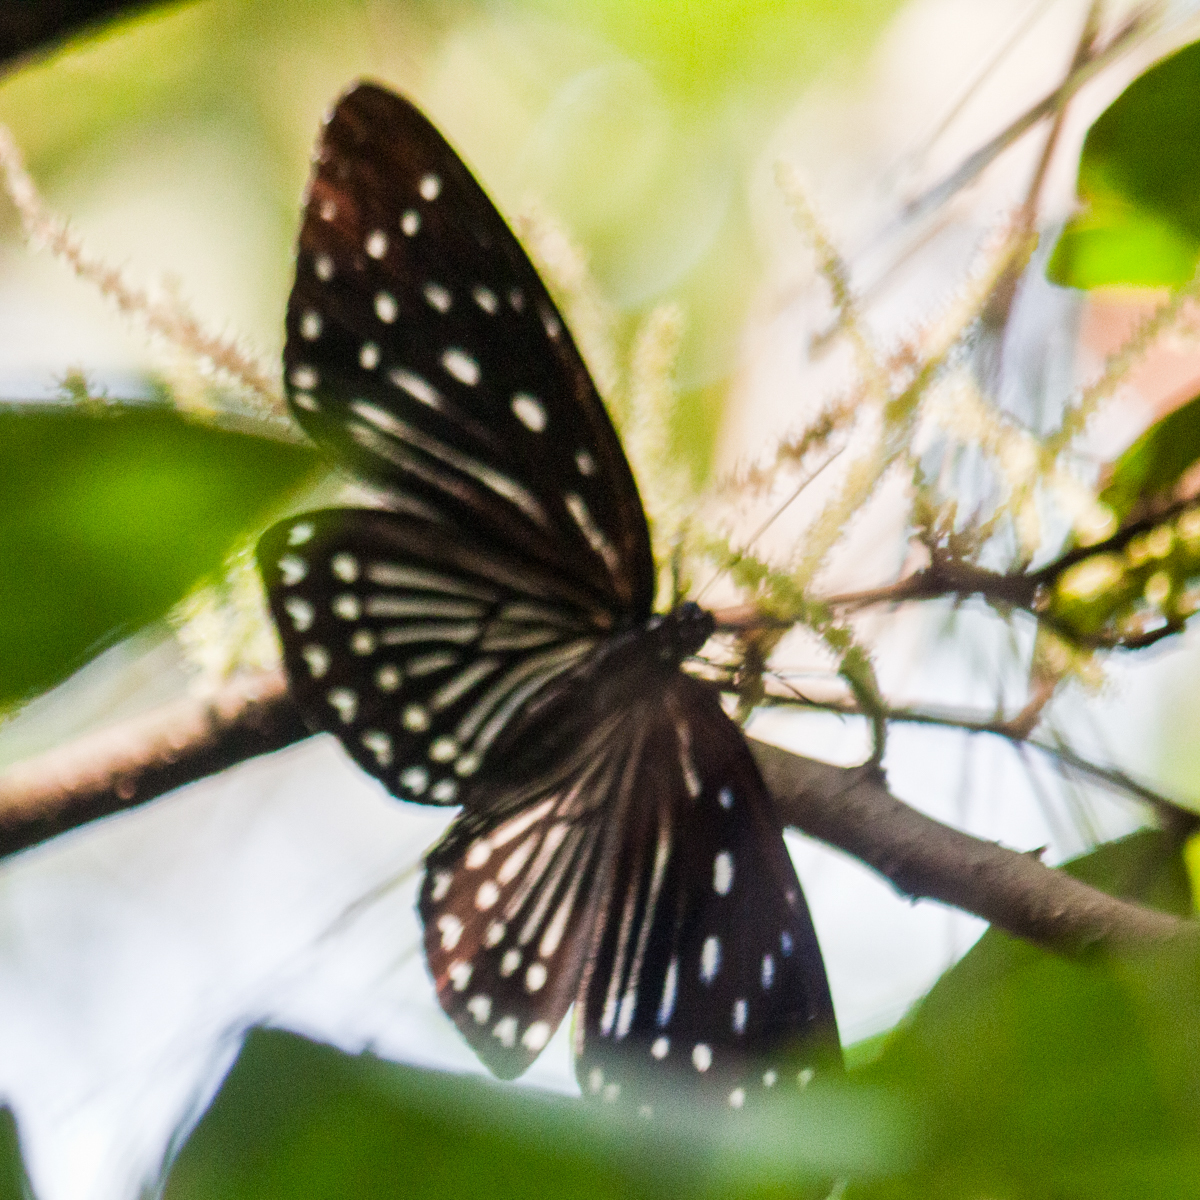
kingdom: Animalia
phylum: Arthropoda
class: Insecta
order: Lepidoptera
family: Nymphalidae
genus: Penthema
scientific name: Penthema darlisa
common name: Three-coloured kaiser
